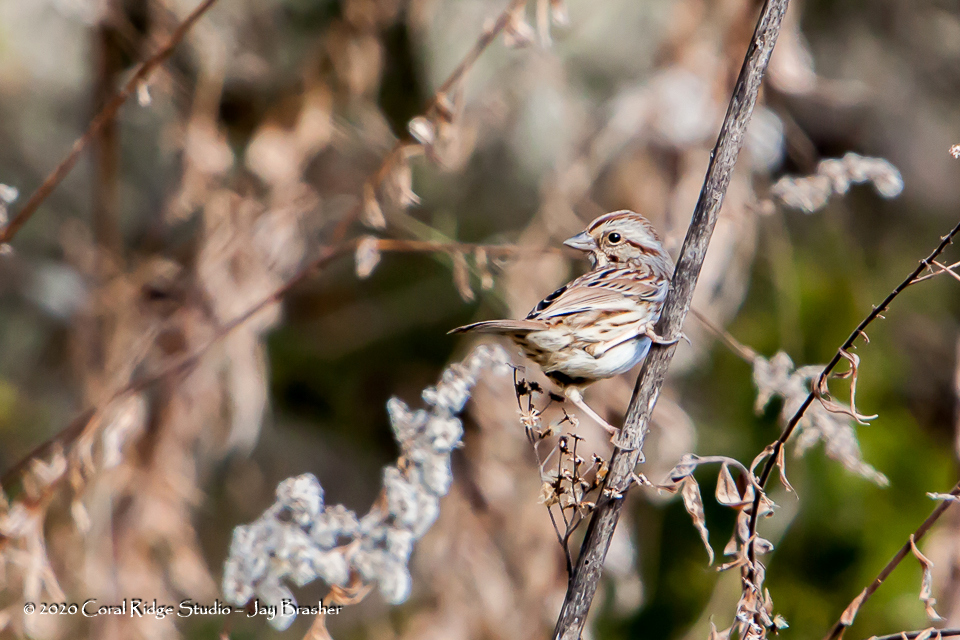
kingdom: Animalia
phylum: Chordata
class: Aves
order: Passeriformes
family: Passerellidae
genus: Melospiza
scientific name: Melospiza melodia
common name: Song sparrow
